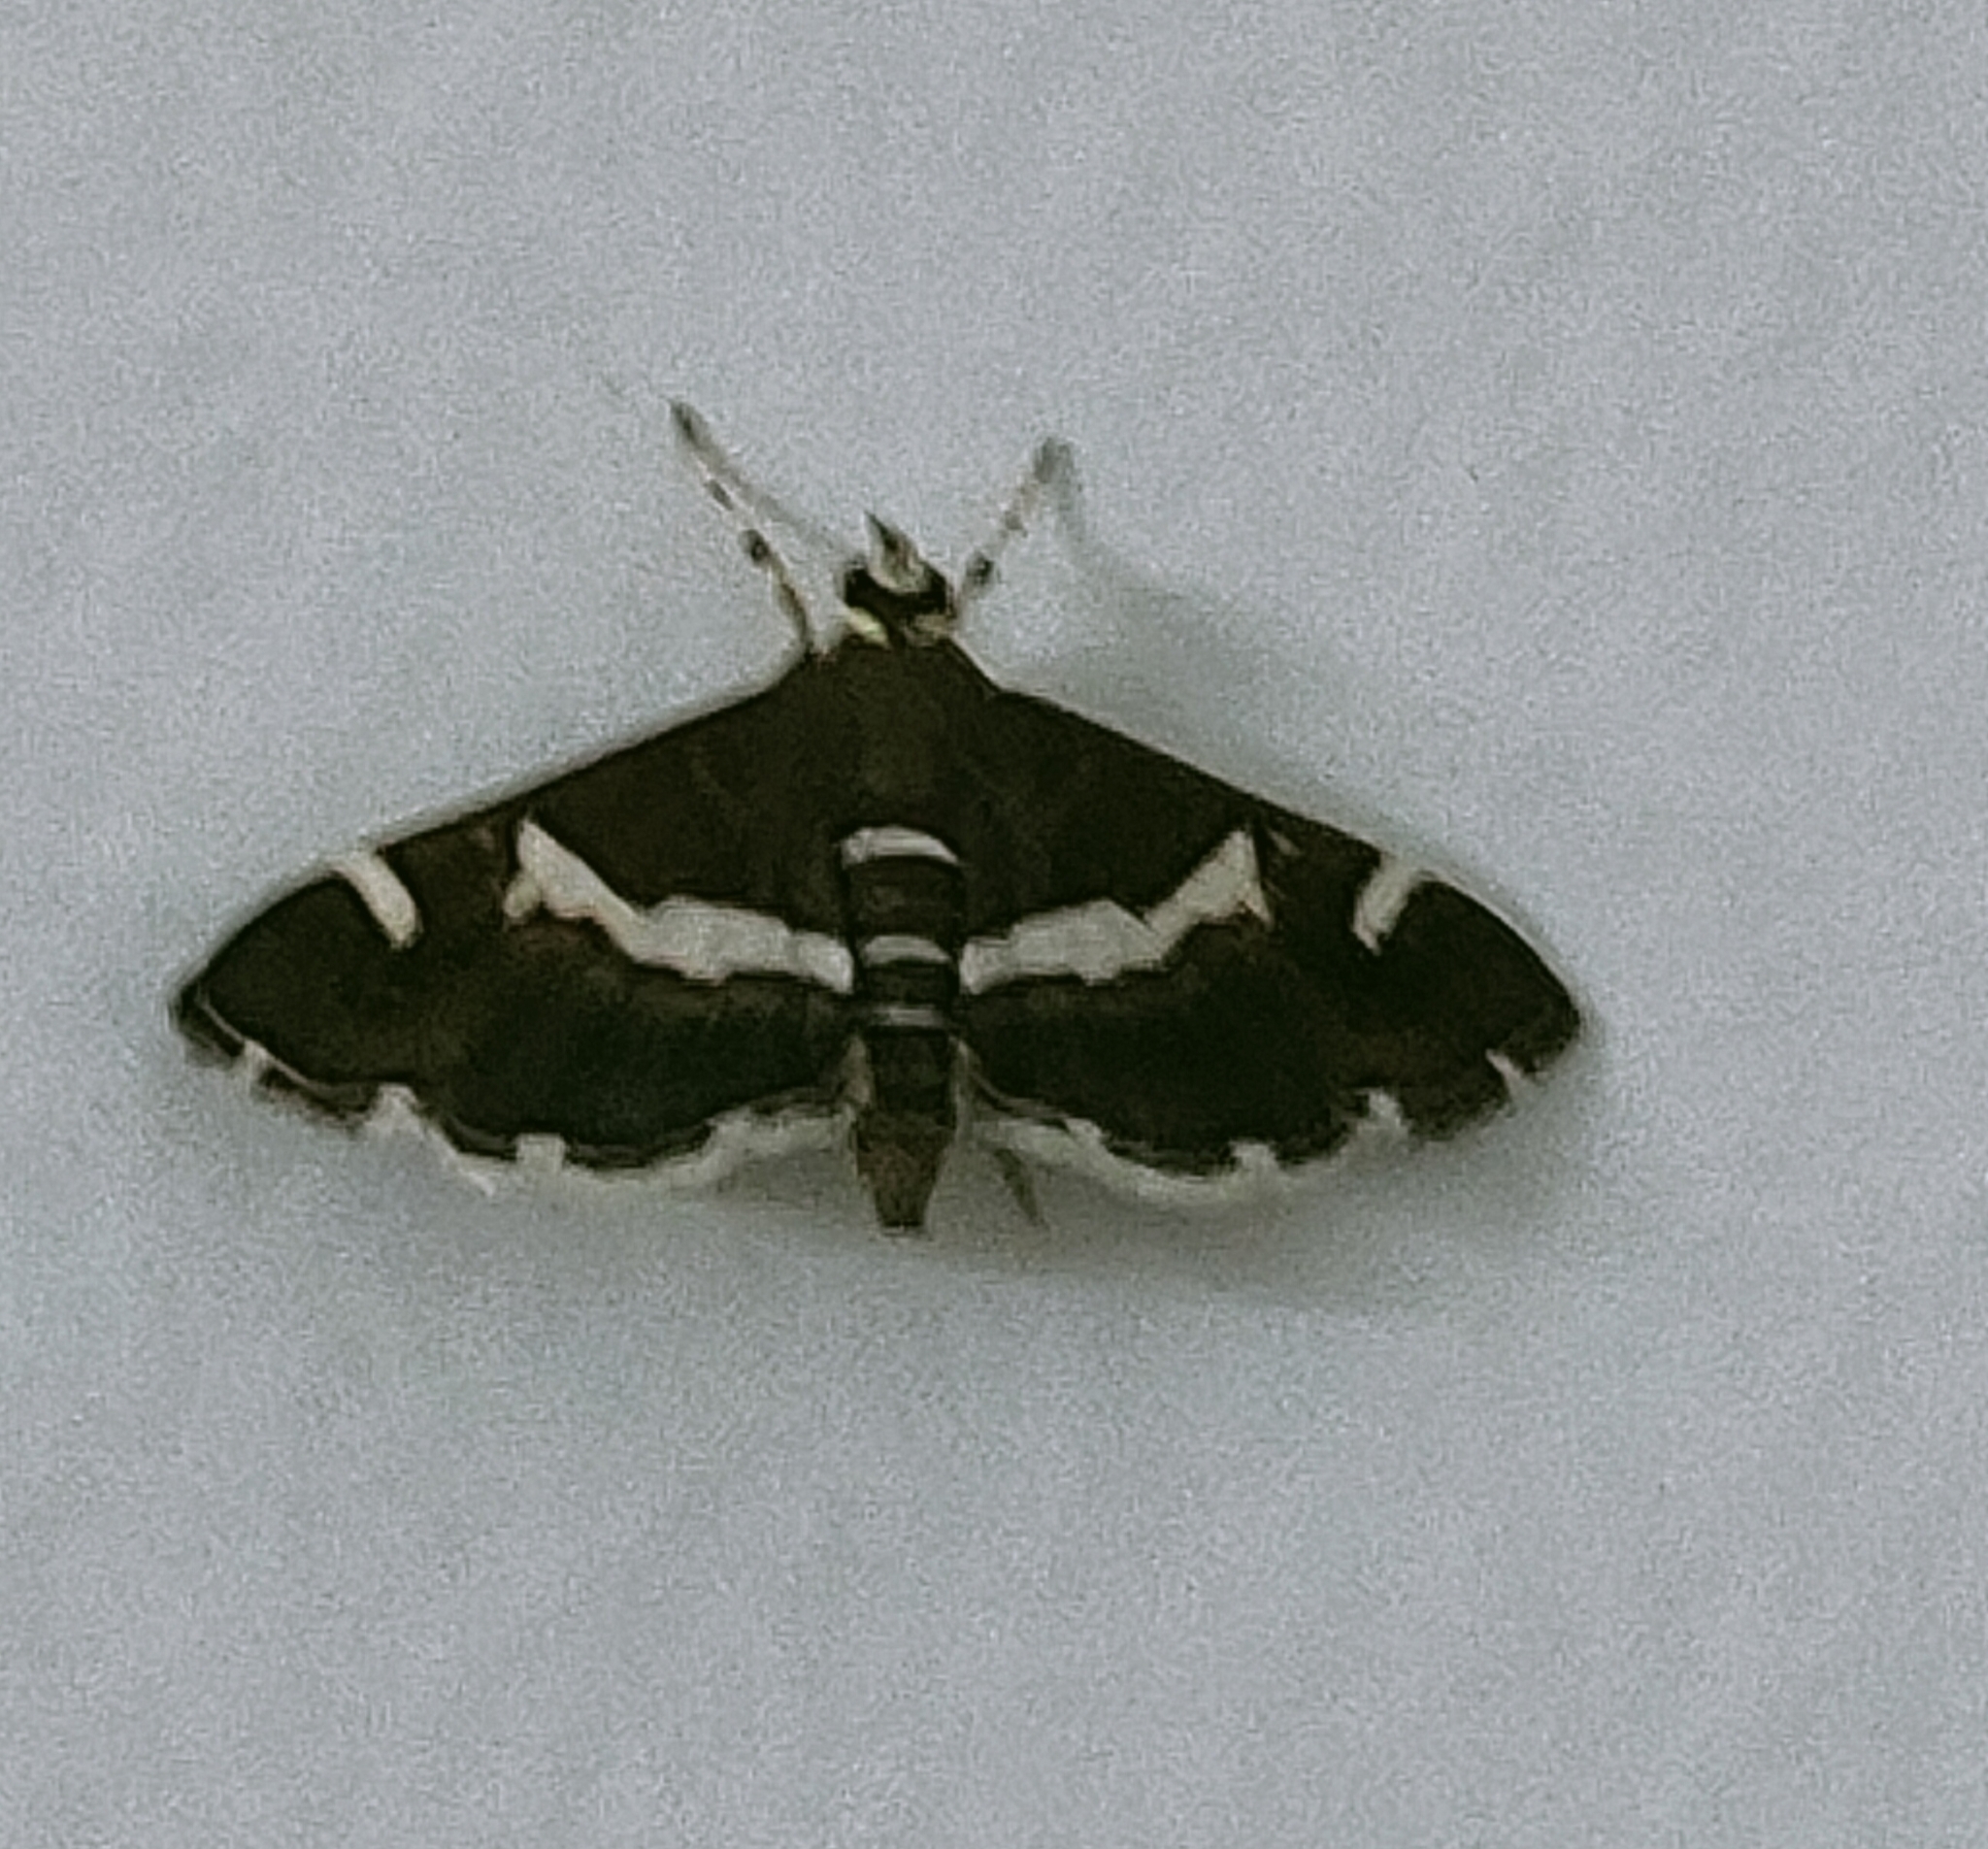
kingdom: Animalia
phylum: Arthropoda
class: Insecta
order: Lepidoptera
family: Crambidae
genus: Spoladea
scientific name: Spoladea recurvalis
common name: Beet webworm moth
